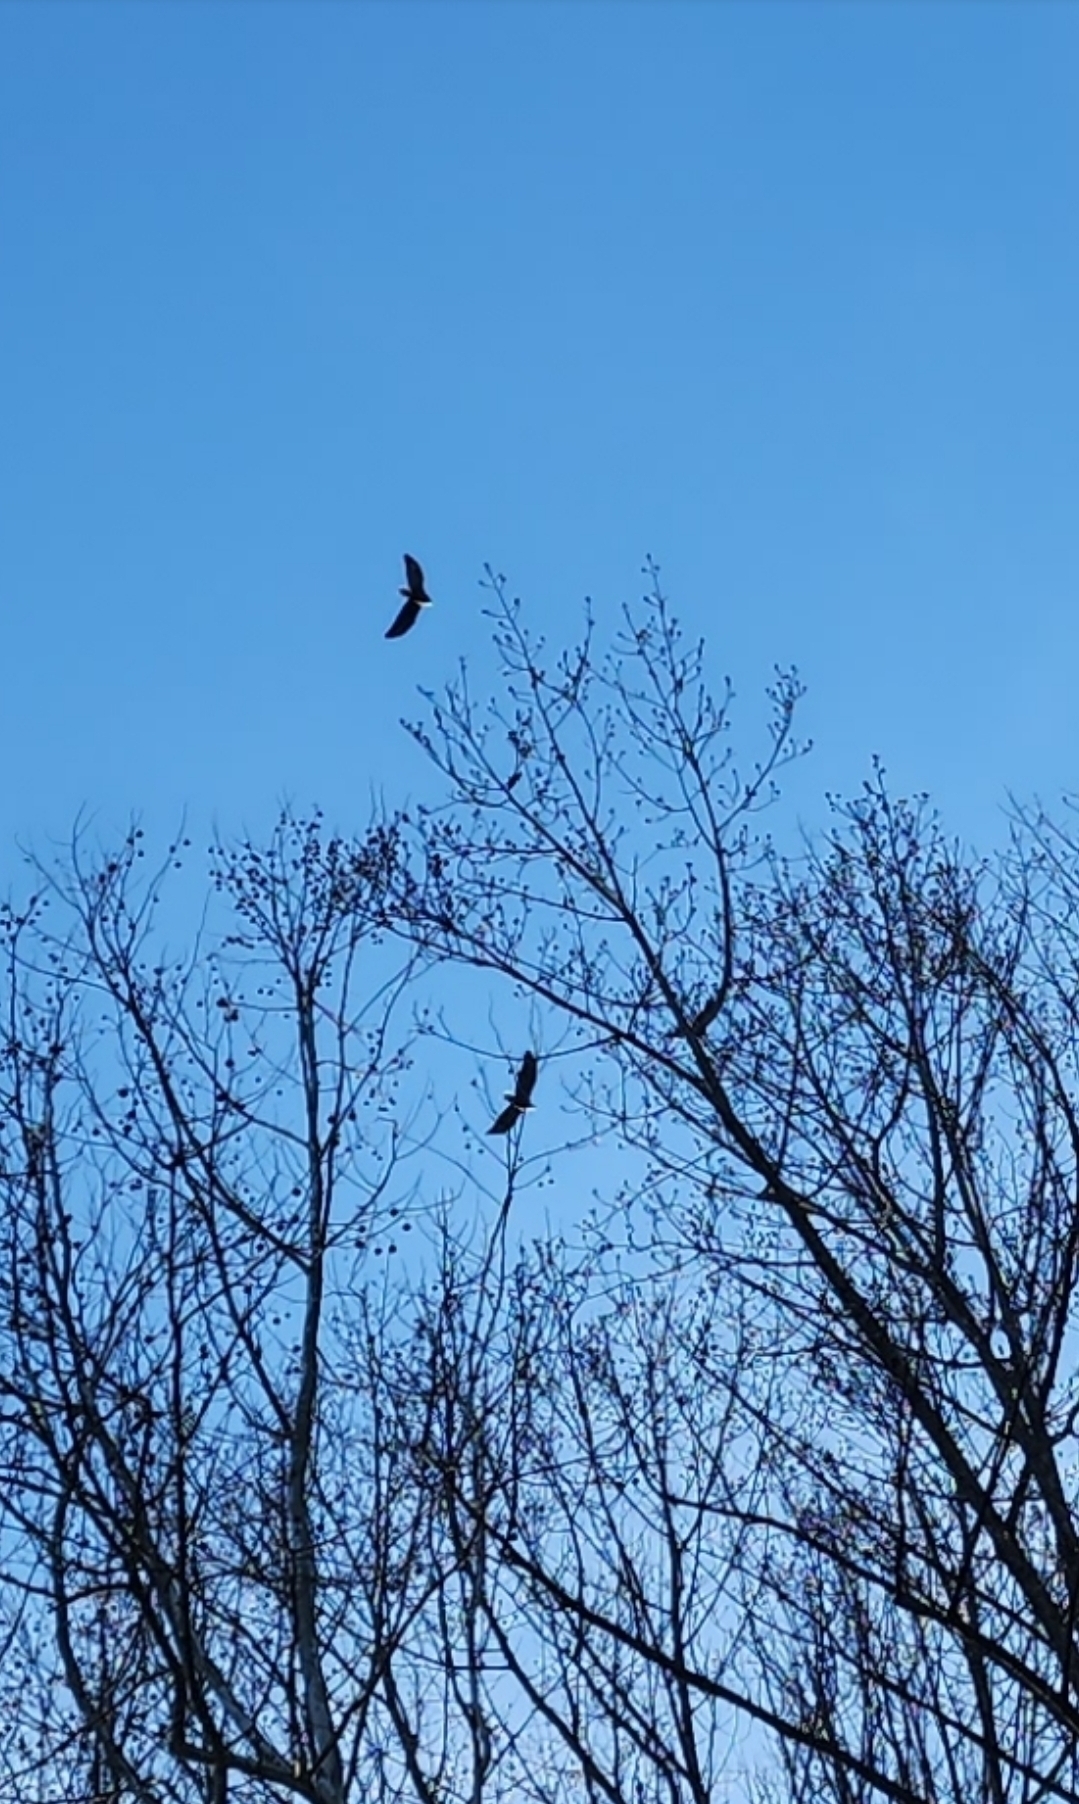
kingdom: Animalia
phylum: Chordata
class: Aves
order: Accipitriformes
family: Accipitridae
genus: Haliaeetus
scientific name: Haliaeetus leucocephalus
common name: Bald eagle
